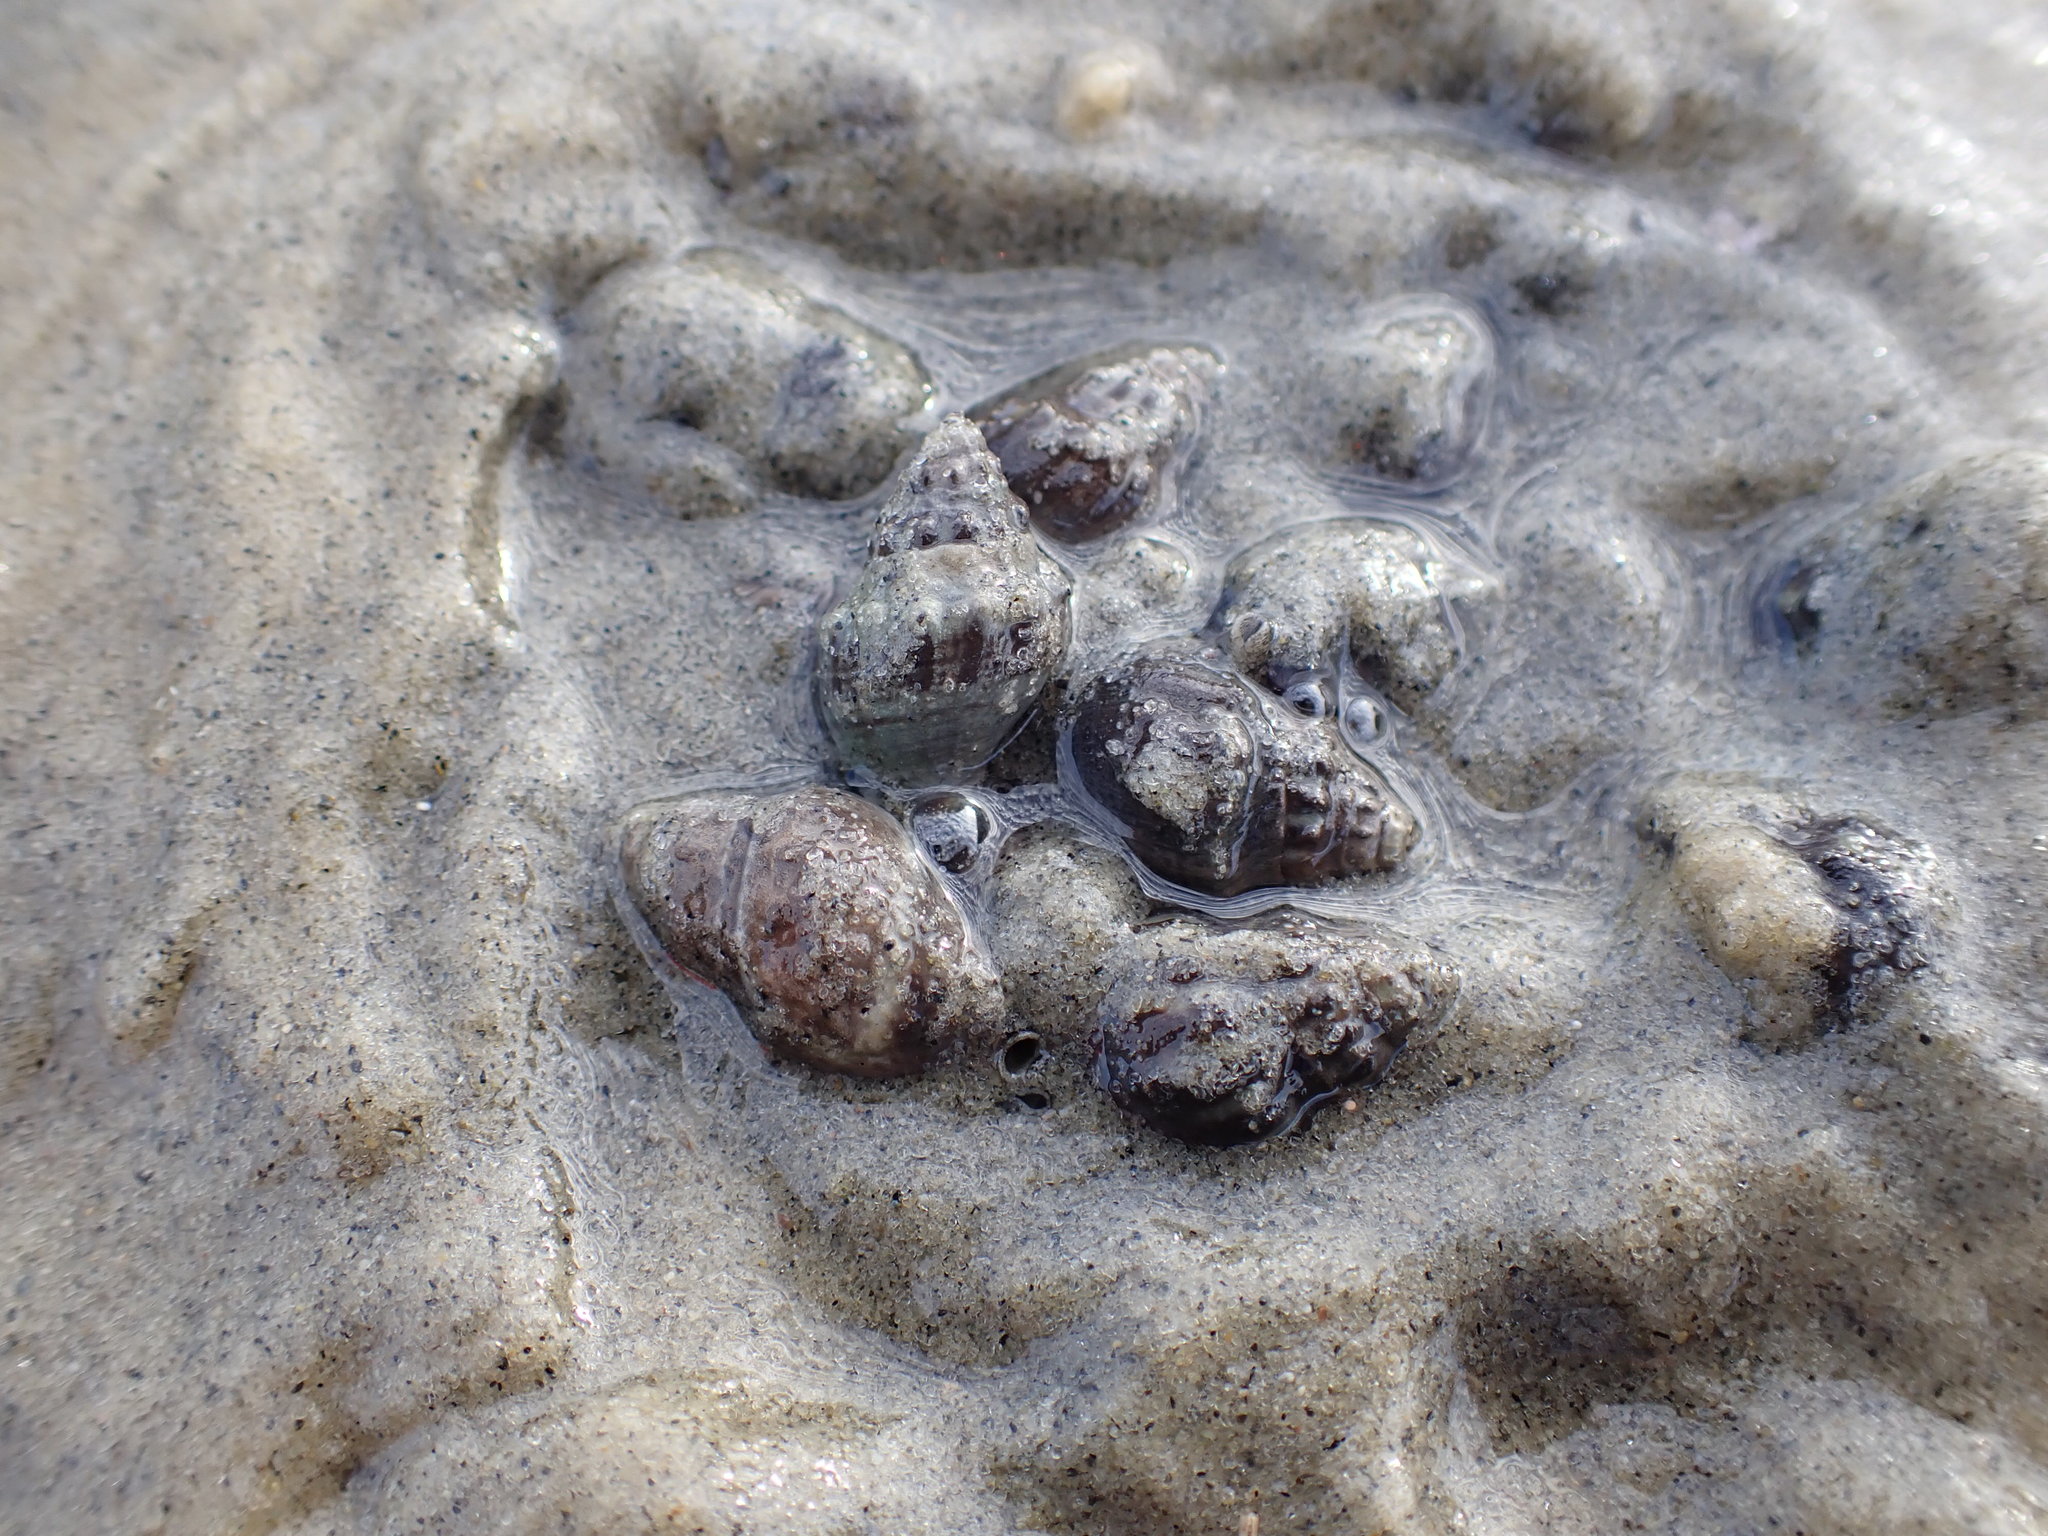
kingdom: Animalia
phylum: Mollusca
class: Gastropoda
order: Neogastropoda
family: Cominellidae
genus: Cominella
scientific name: Cominella glandiformis
